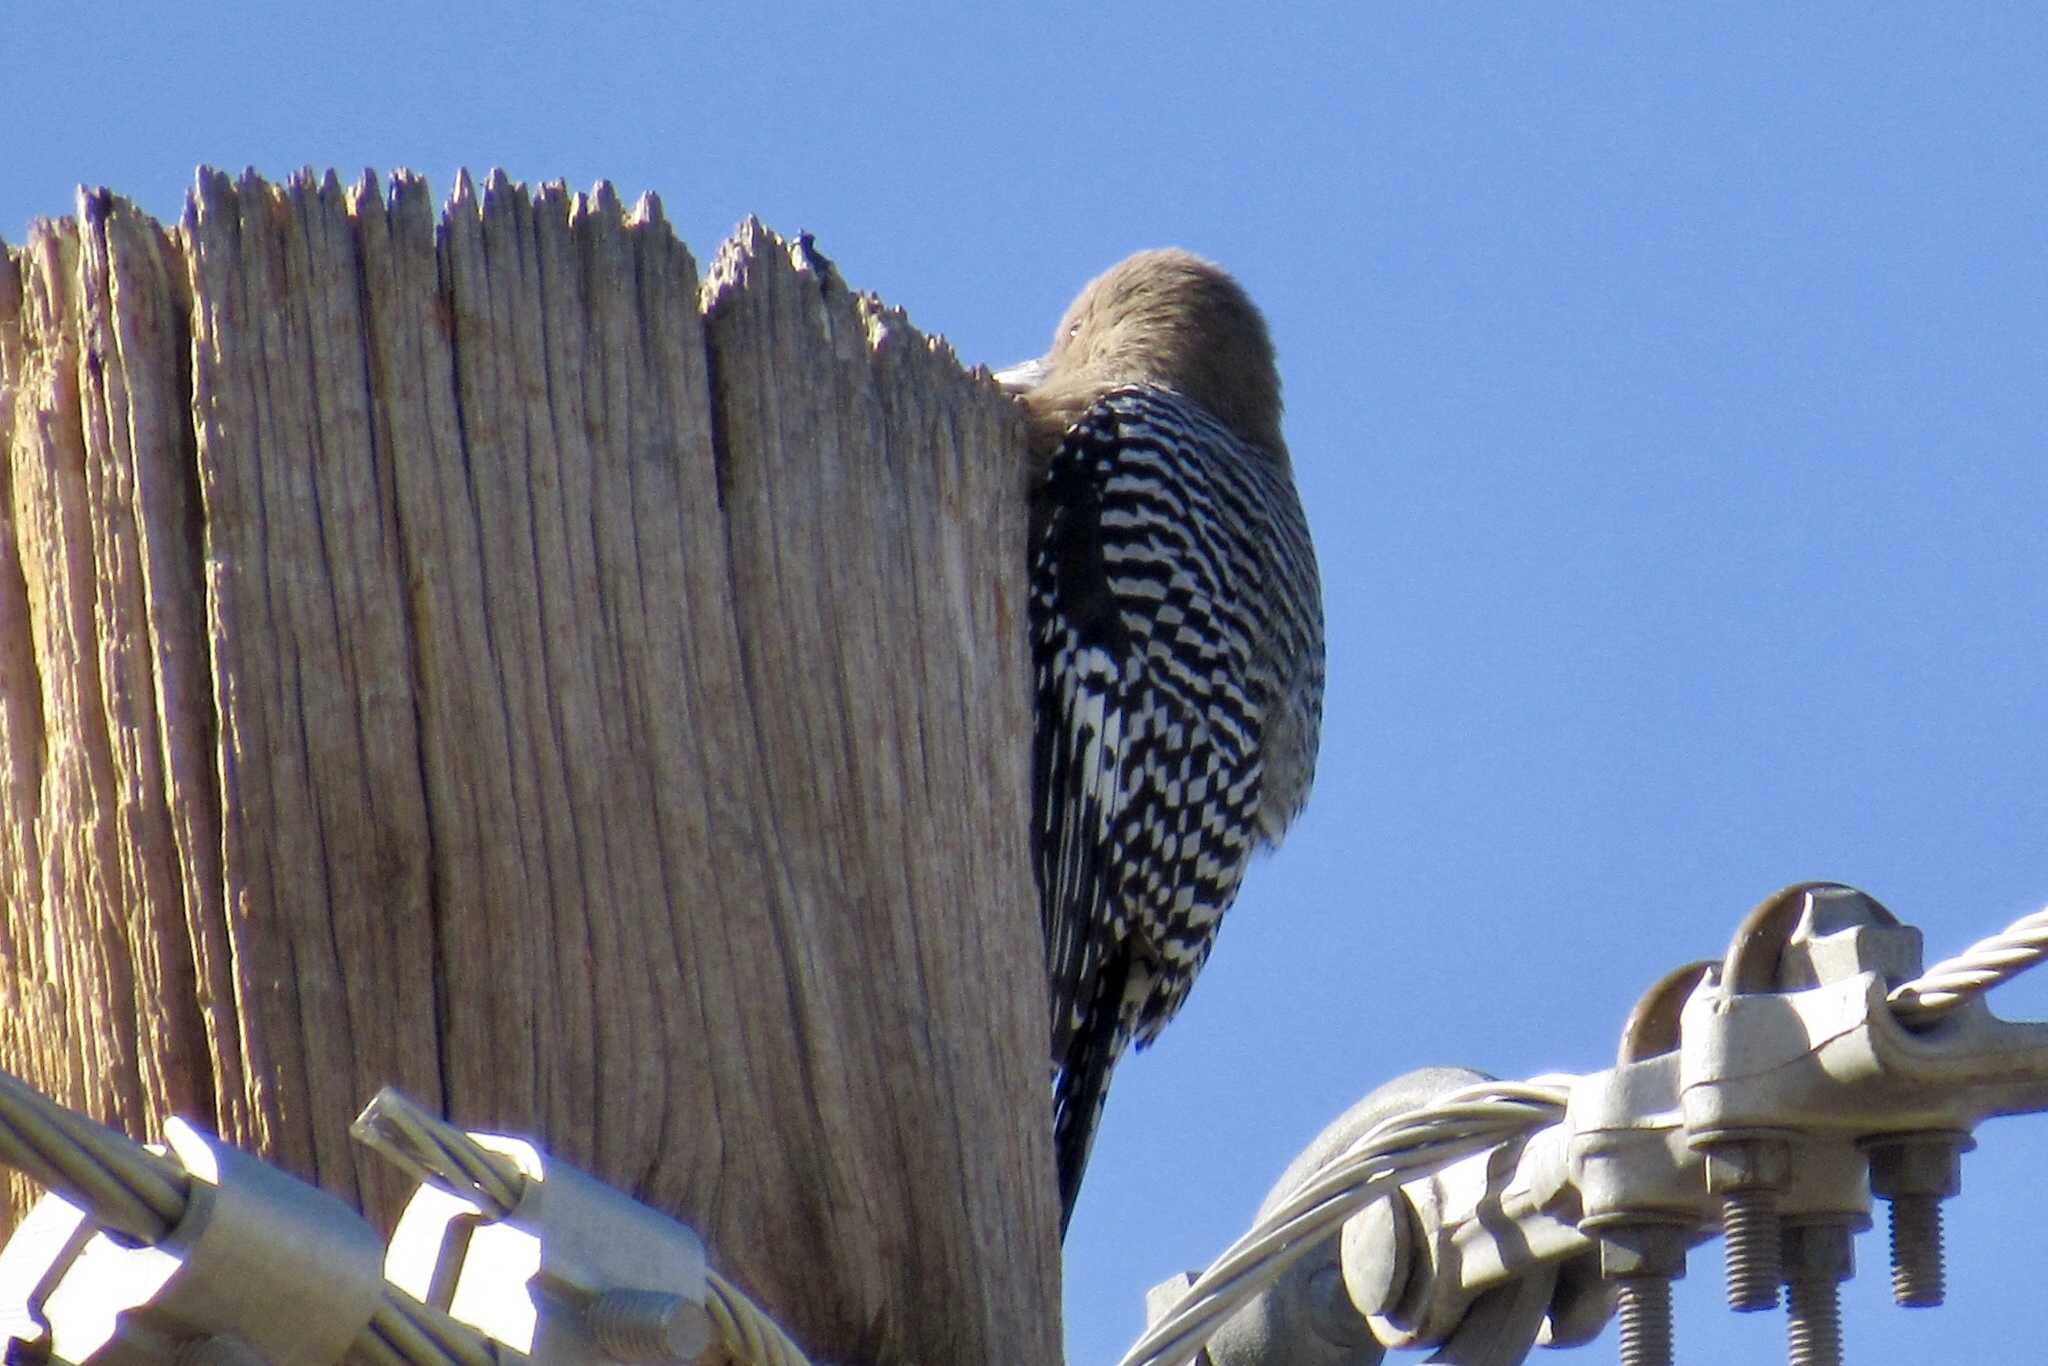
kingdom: Animalia
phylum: Chordata
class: Aves
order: Piciformes
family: Picidae
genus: Melanerpes
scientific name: Melanerpes uropygialis
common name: Gila woodpecker
